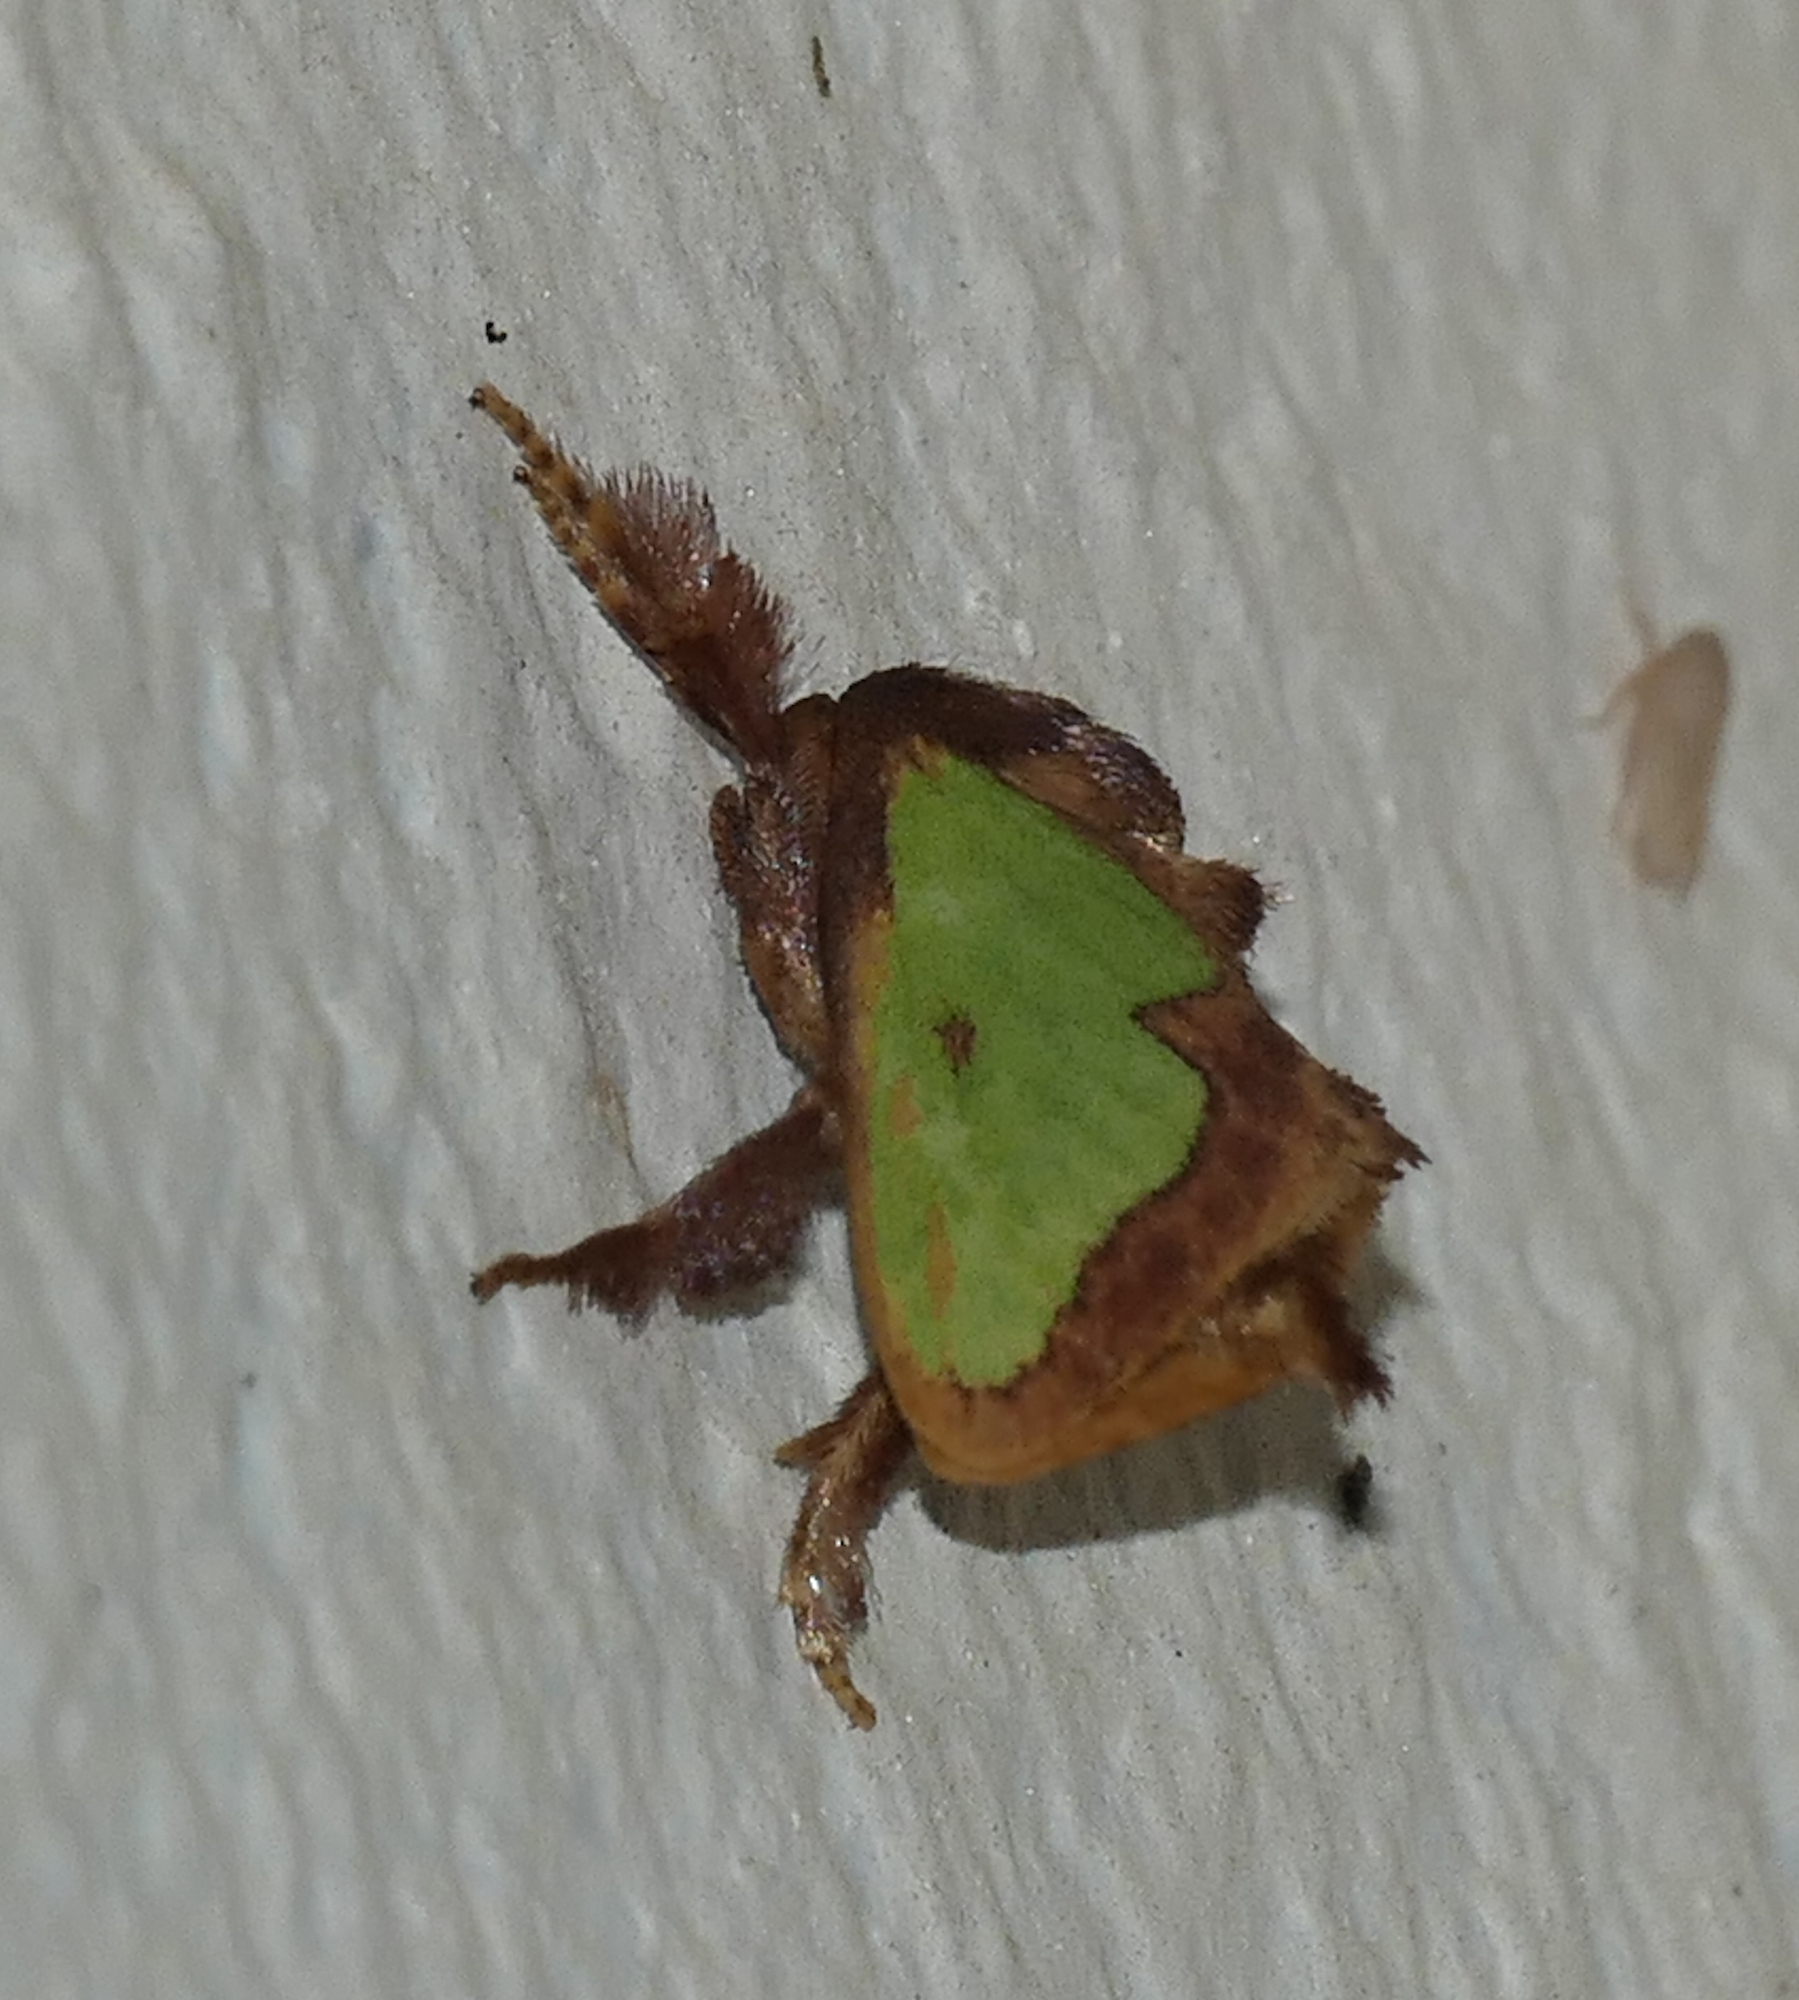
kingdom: Animalia
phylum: Arthropoda
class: Insecta
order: Lepidoptera
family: Limacodidae
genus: Euclea
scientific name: Euclea incisa
